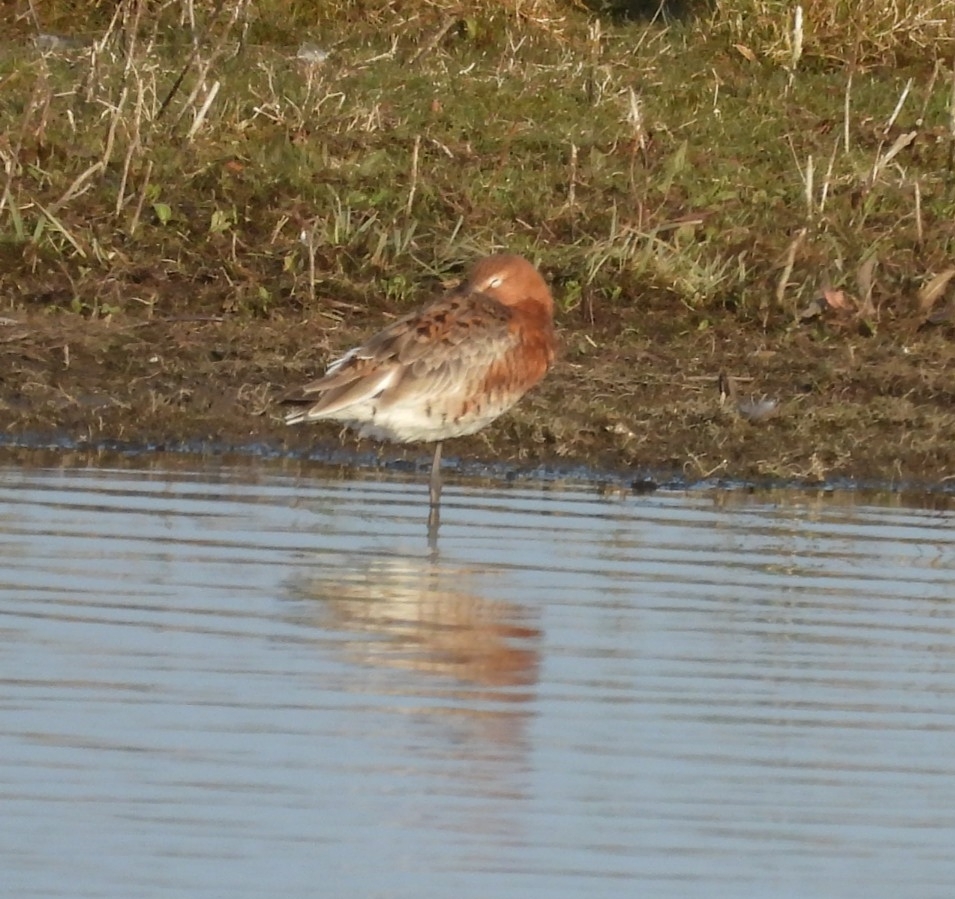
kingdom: Animalia
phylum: Chordata
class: Aves
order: Charadriiformes
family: Scolopacidae
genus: Limosa
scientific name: Limosa limosa
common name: Black-tailed godwit
